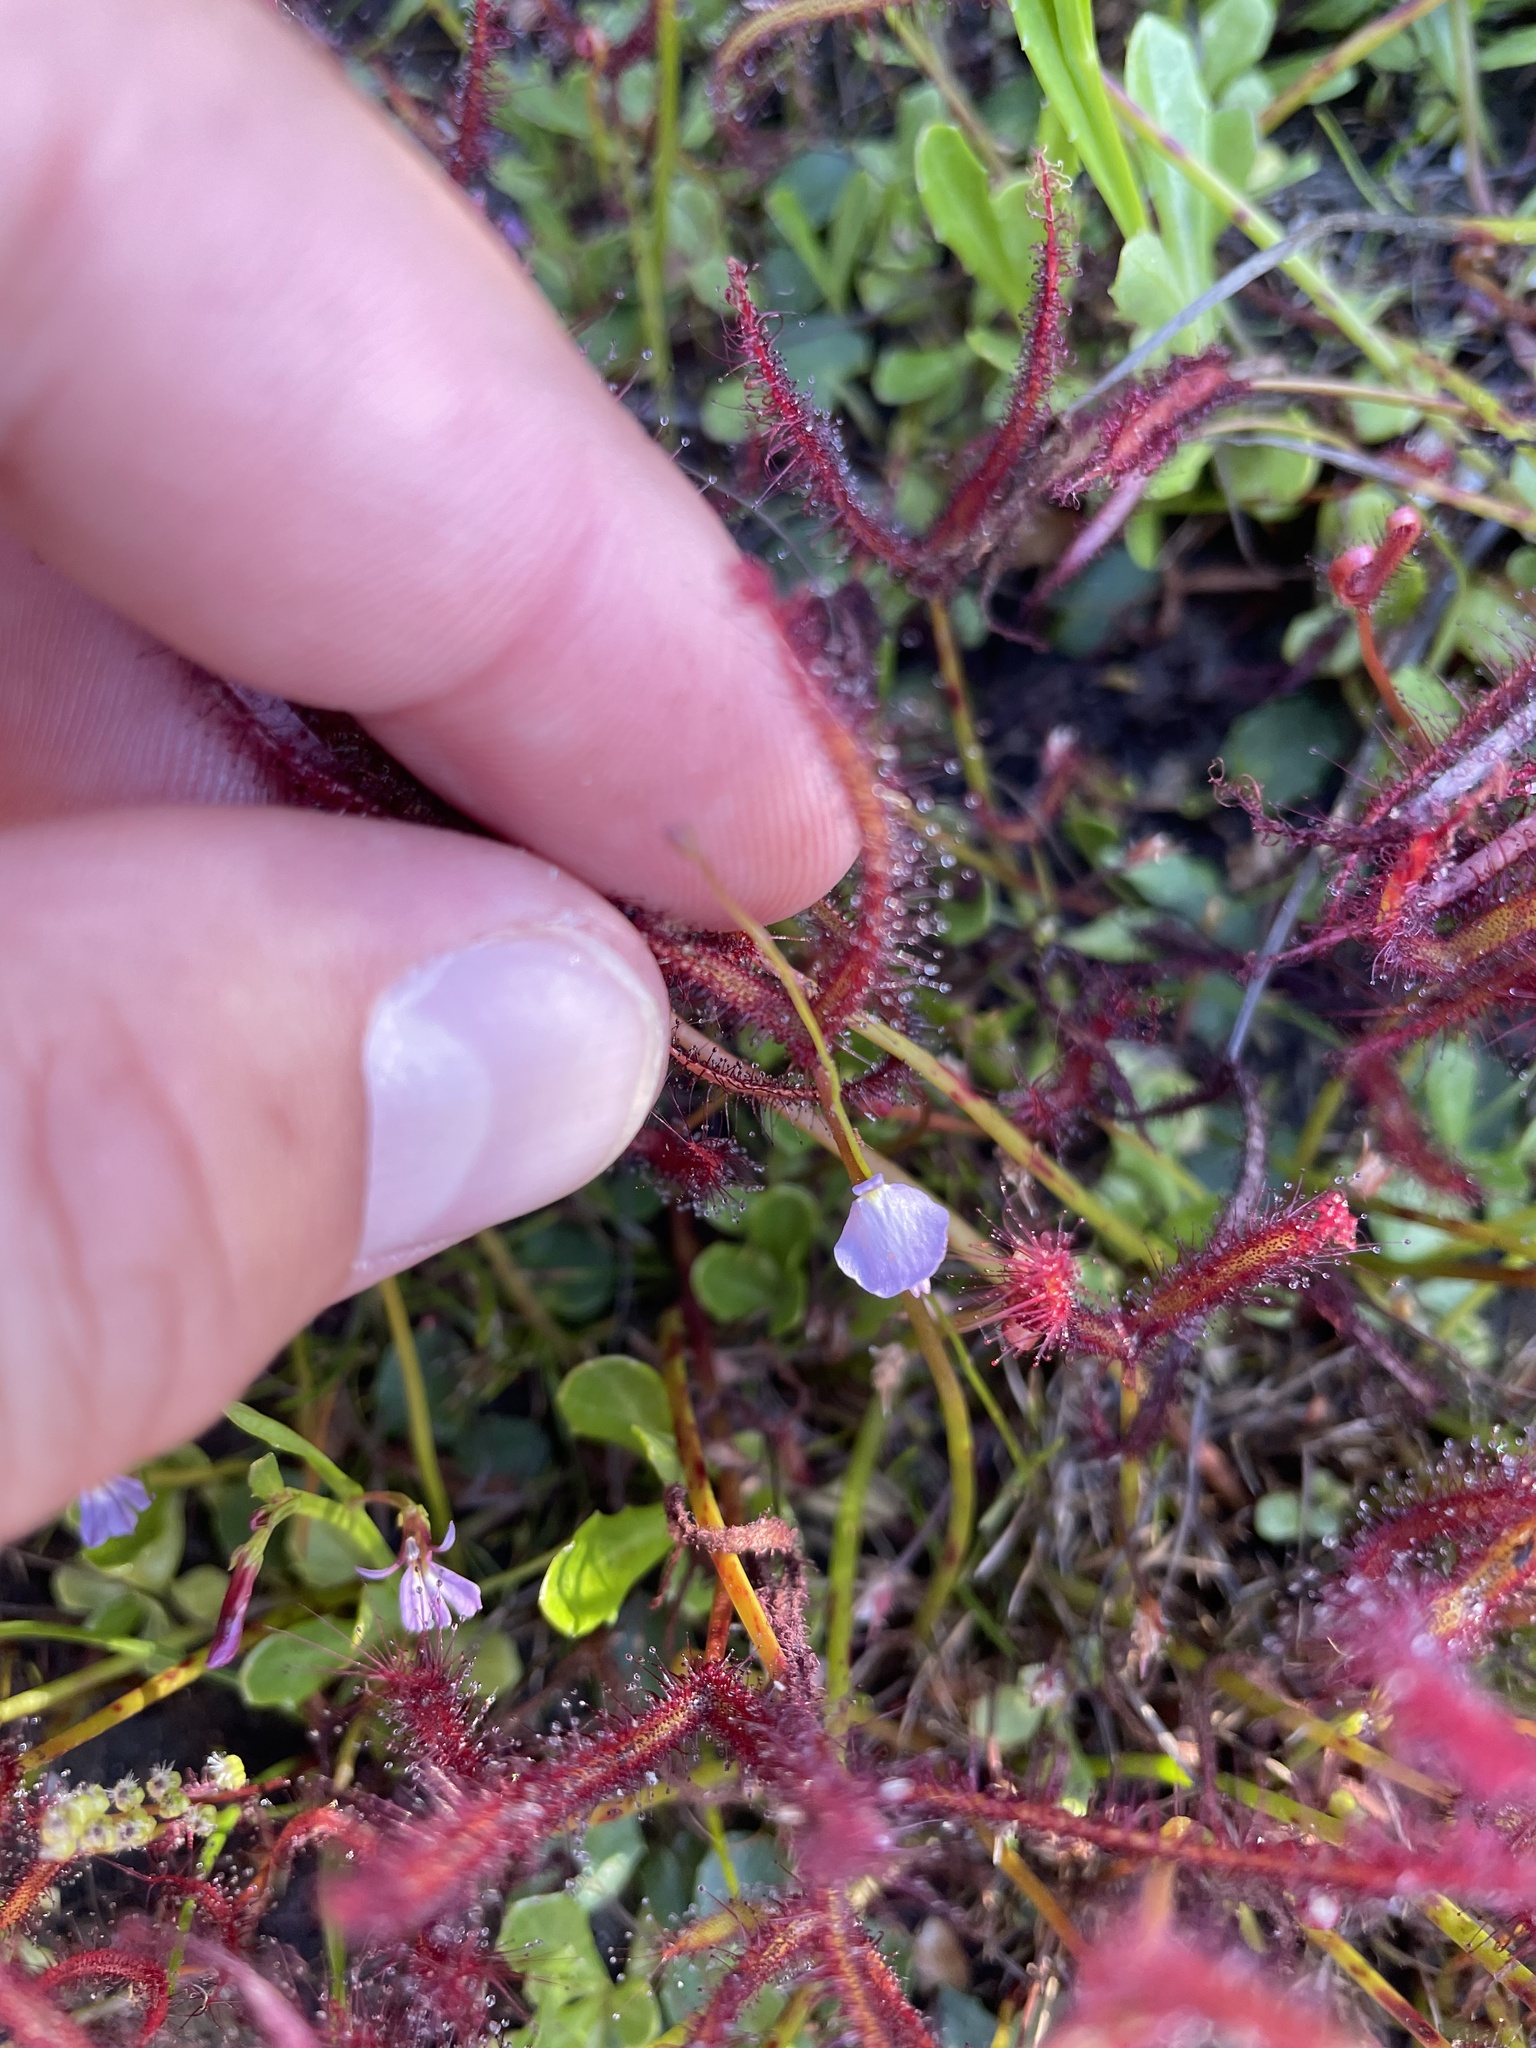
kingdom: Plantae
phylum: Tracheophyta
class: Magnoliopsida
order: Lamiales
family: Lentibulariaceae
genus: Utricularia
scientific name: Utricularia lateriflora
